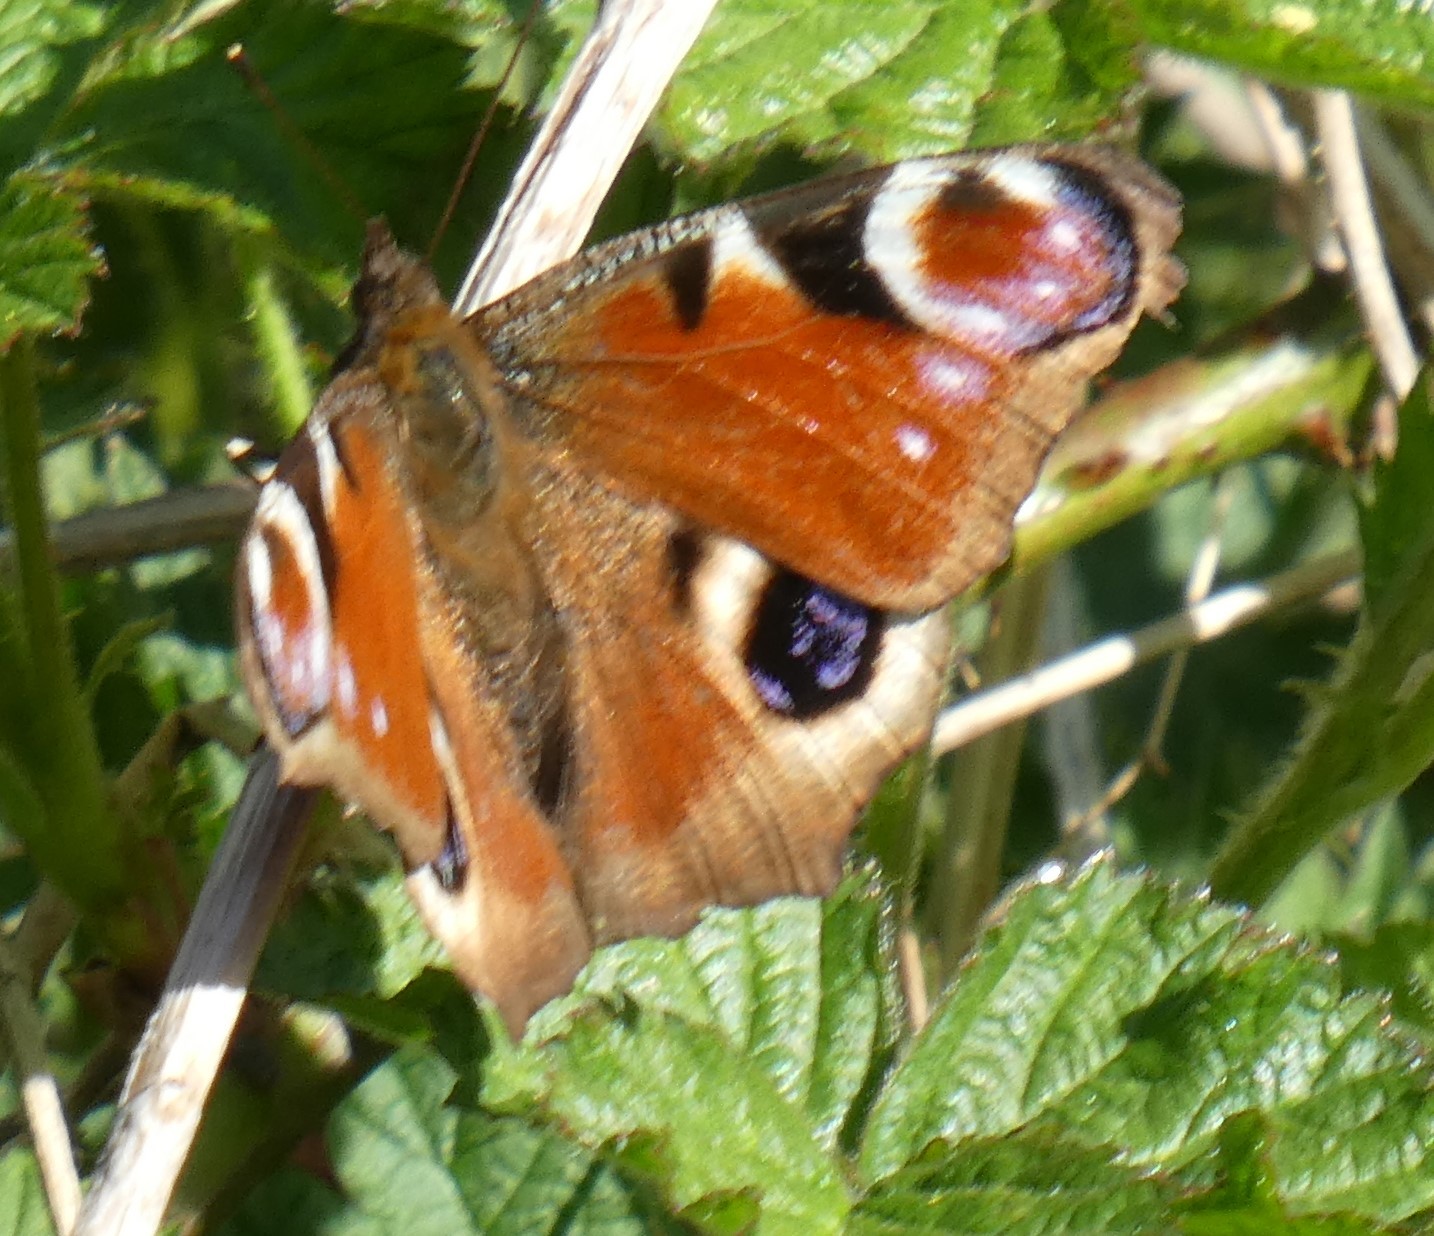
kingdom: Animalia
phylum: Arthropoda
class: Insecta
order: Lepidoptera
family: Nymphalidae
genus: Aglais
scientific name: Aglais io
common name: Peacock
